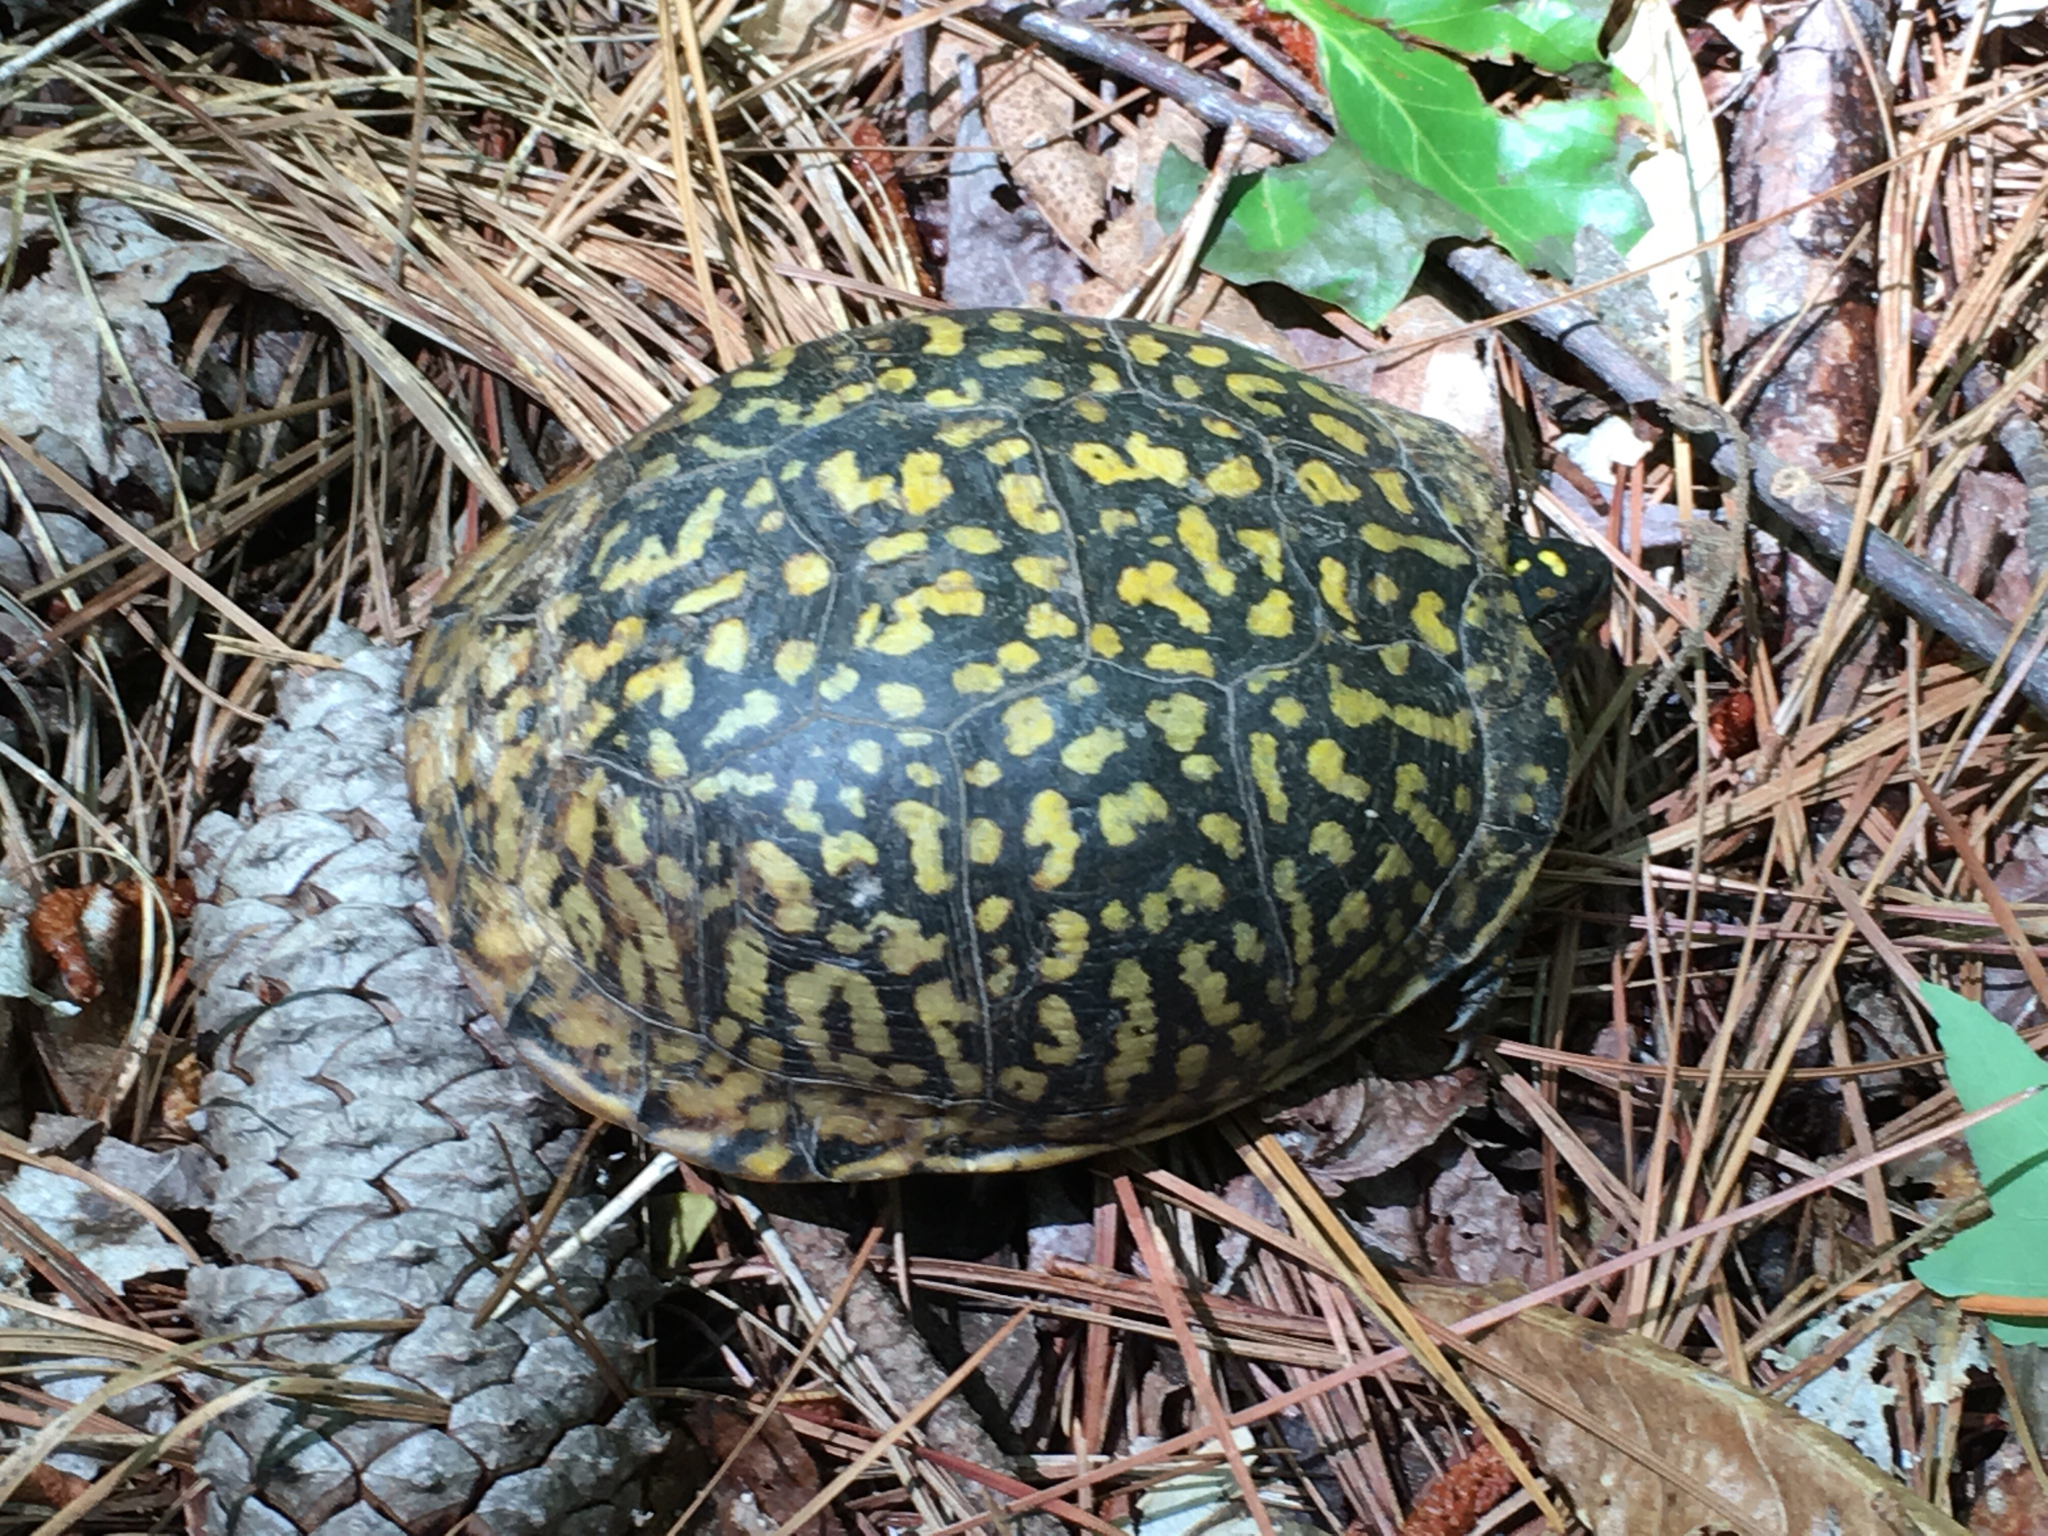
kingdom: Animalia
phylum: Chordata
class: Testudines
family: Emydidae
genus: Terrapene
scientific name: Terrapene carolina
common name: Common box turtle
